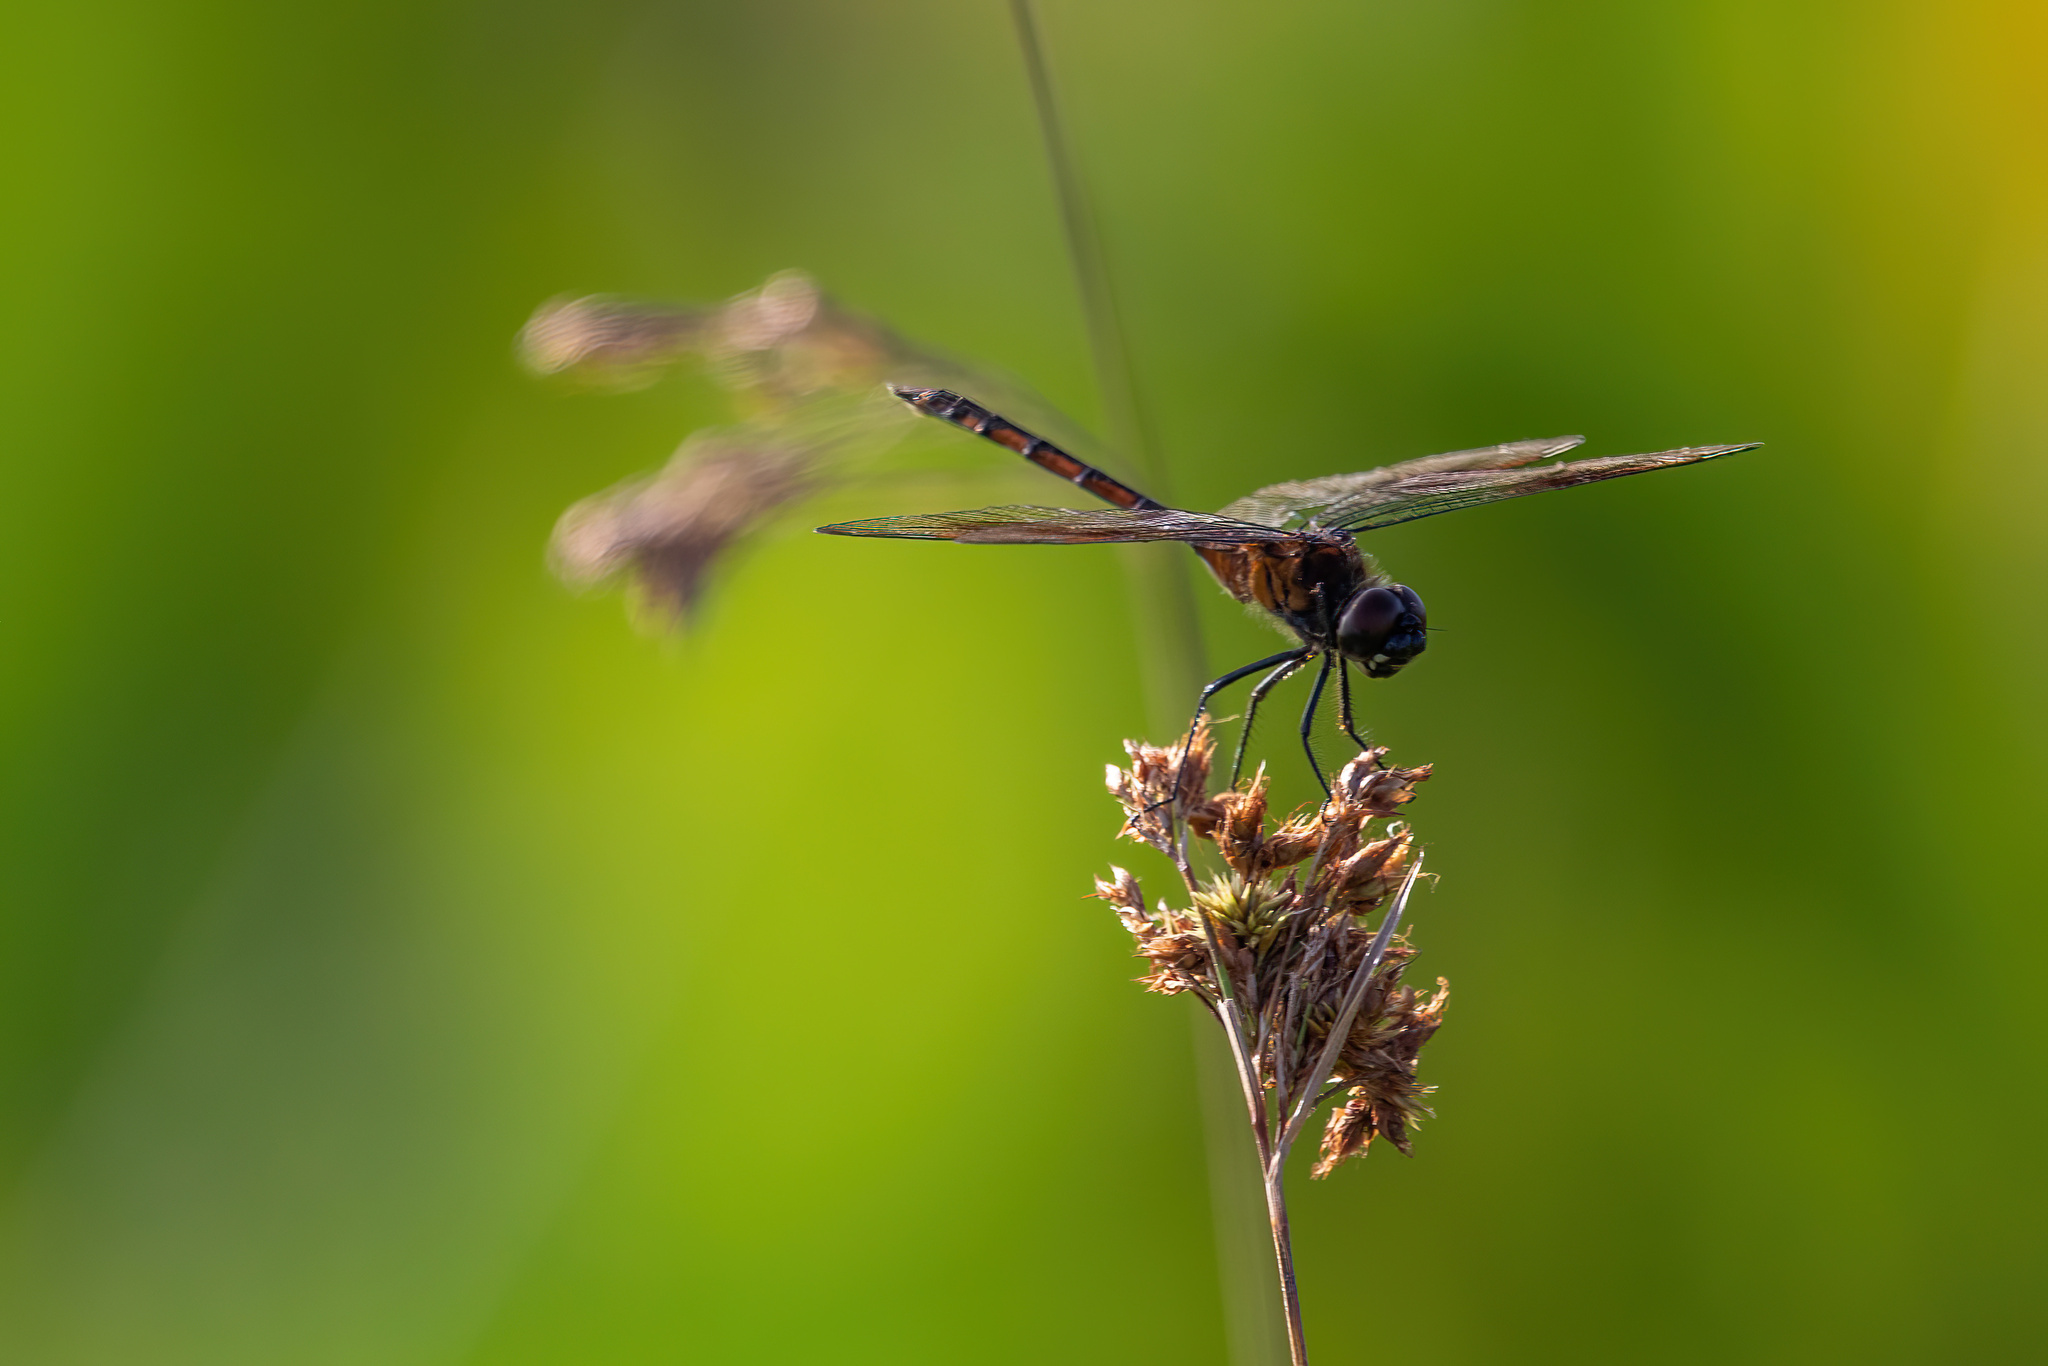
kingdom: Animalia
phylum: Arthropoda
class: Insecta
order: Odonata
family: Libellulidae
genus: Brachymesia
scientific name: Brachymesia gravida
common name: Four-spotted pennant
